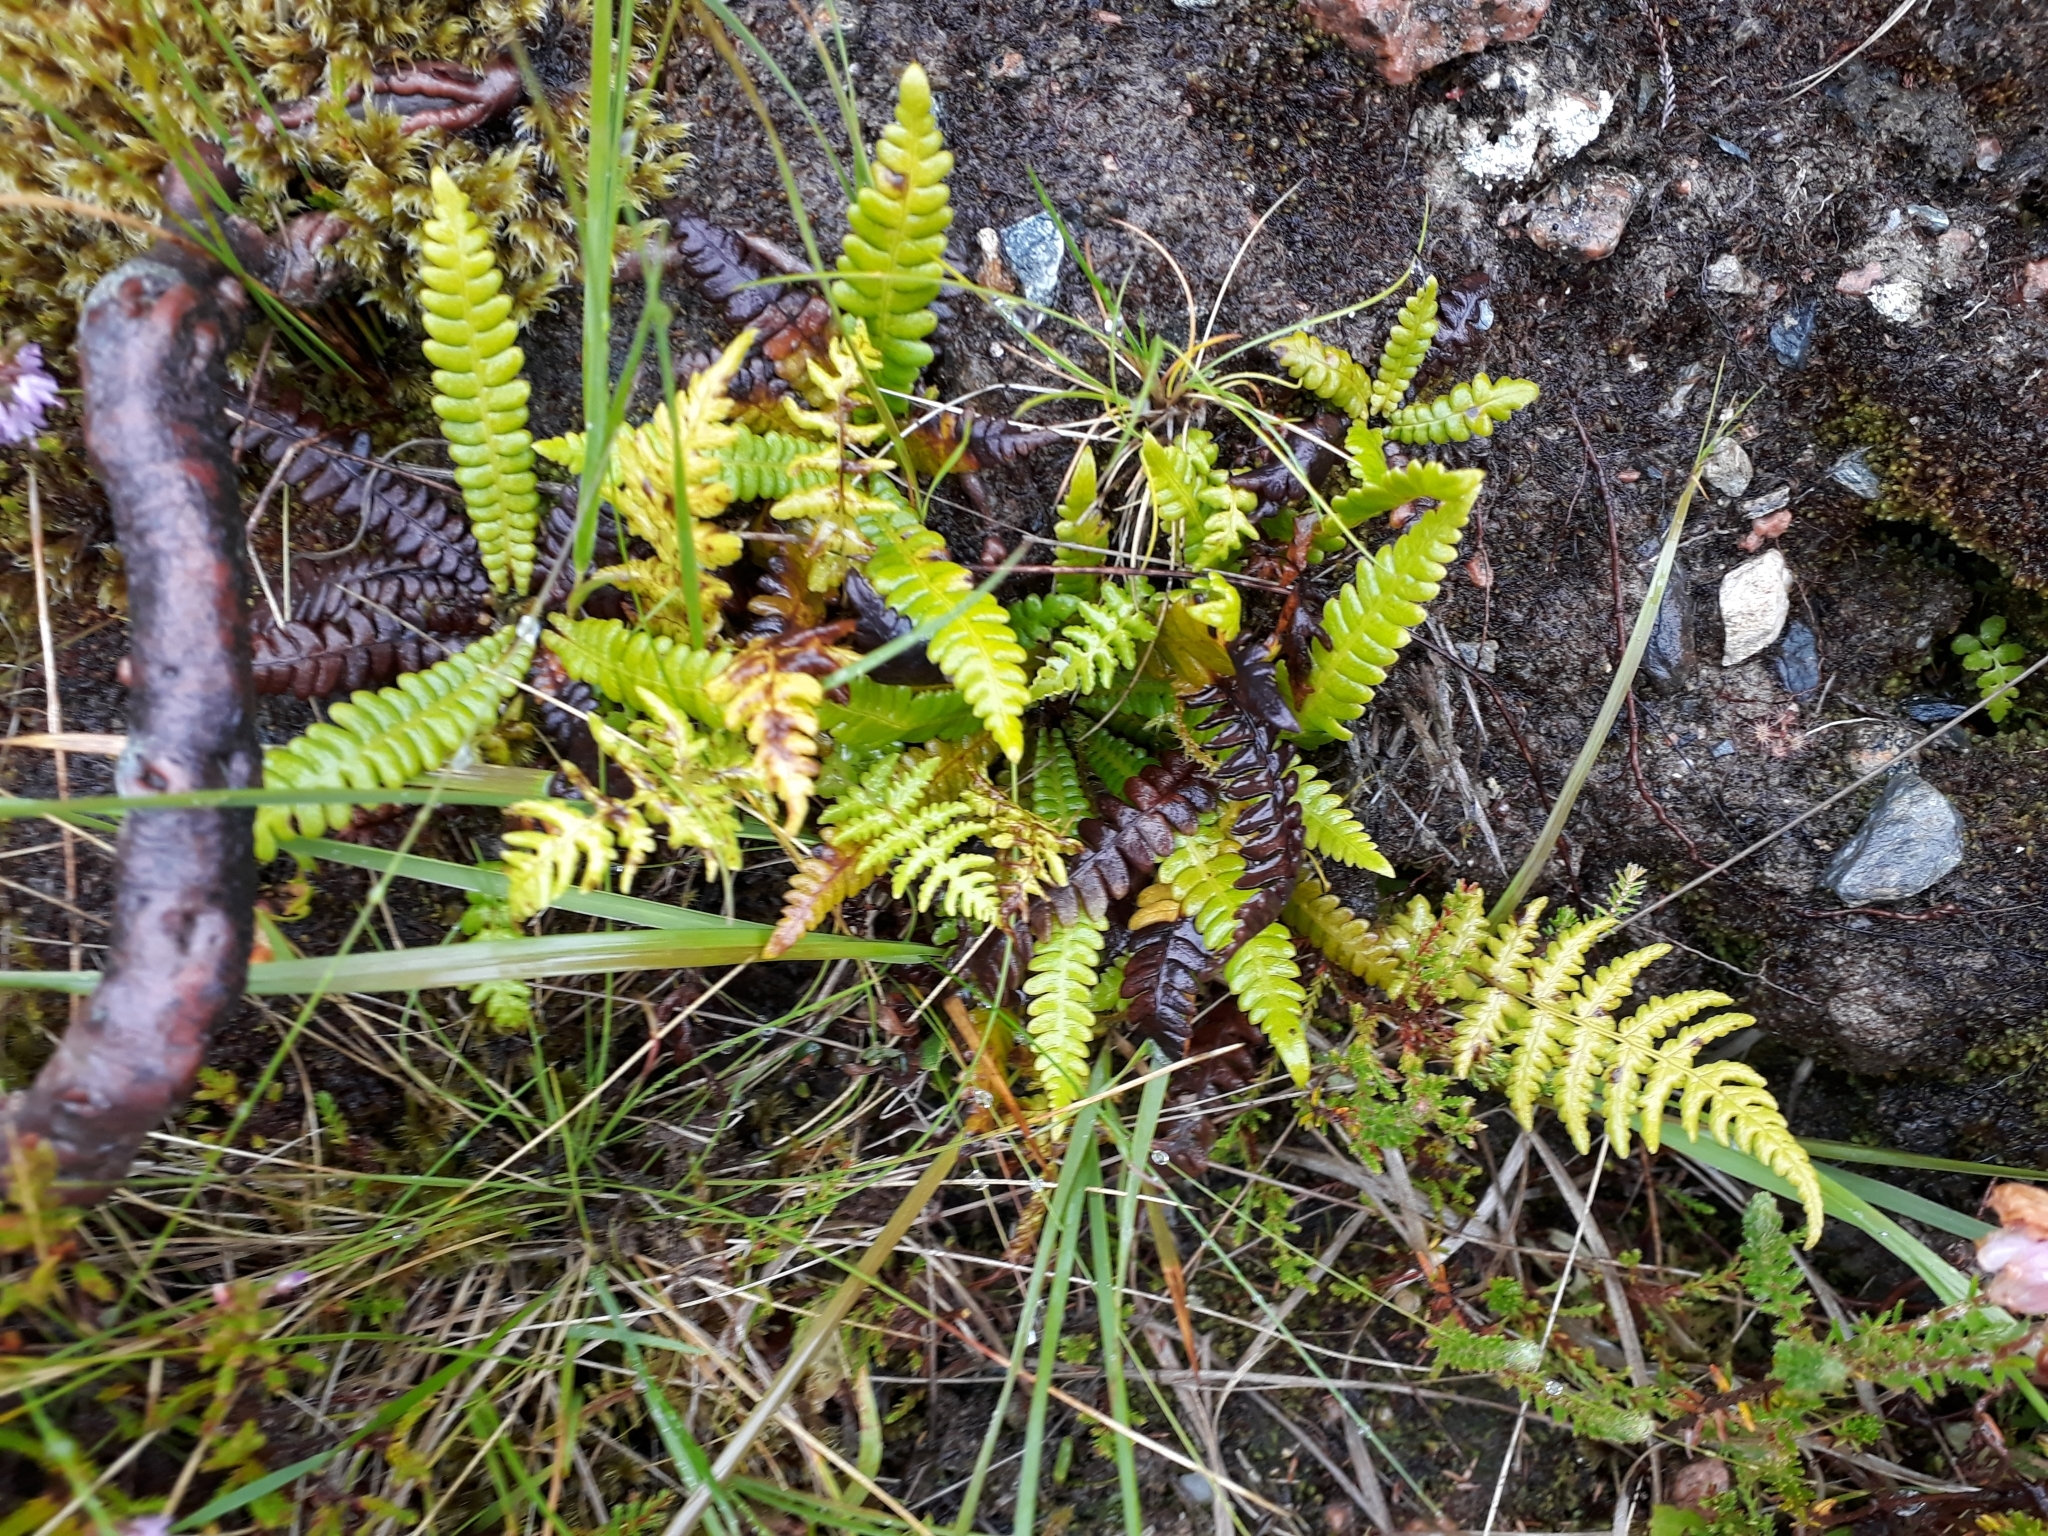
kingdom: Plantae
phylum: Tracheophyta
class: Polypodiopsida
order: Polypodiales
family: Blechnaceae
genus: Struthiopteris
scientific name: Struthiopteris spicant
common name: Deer fern
